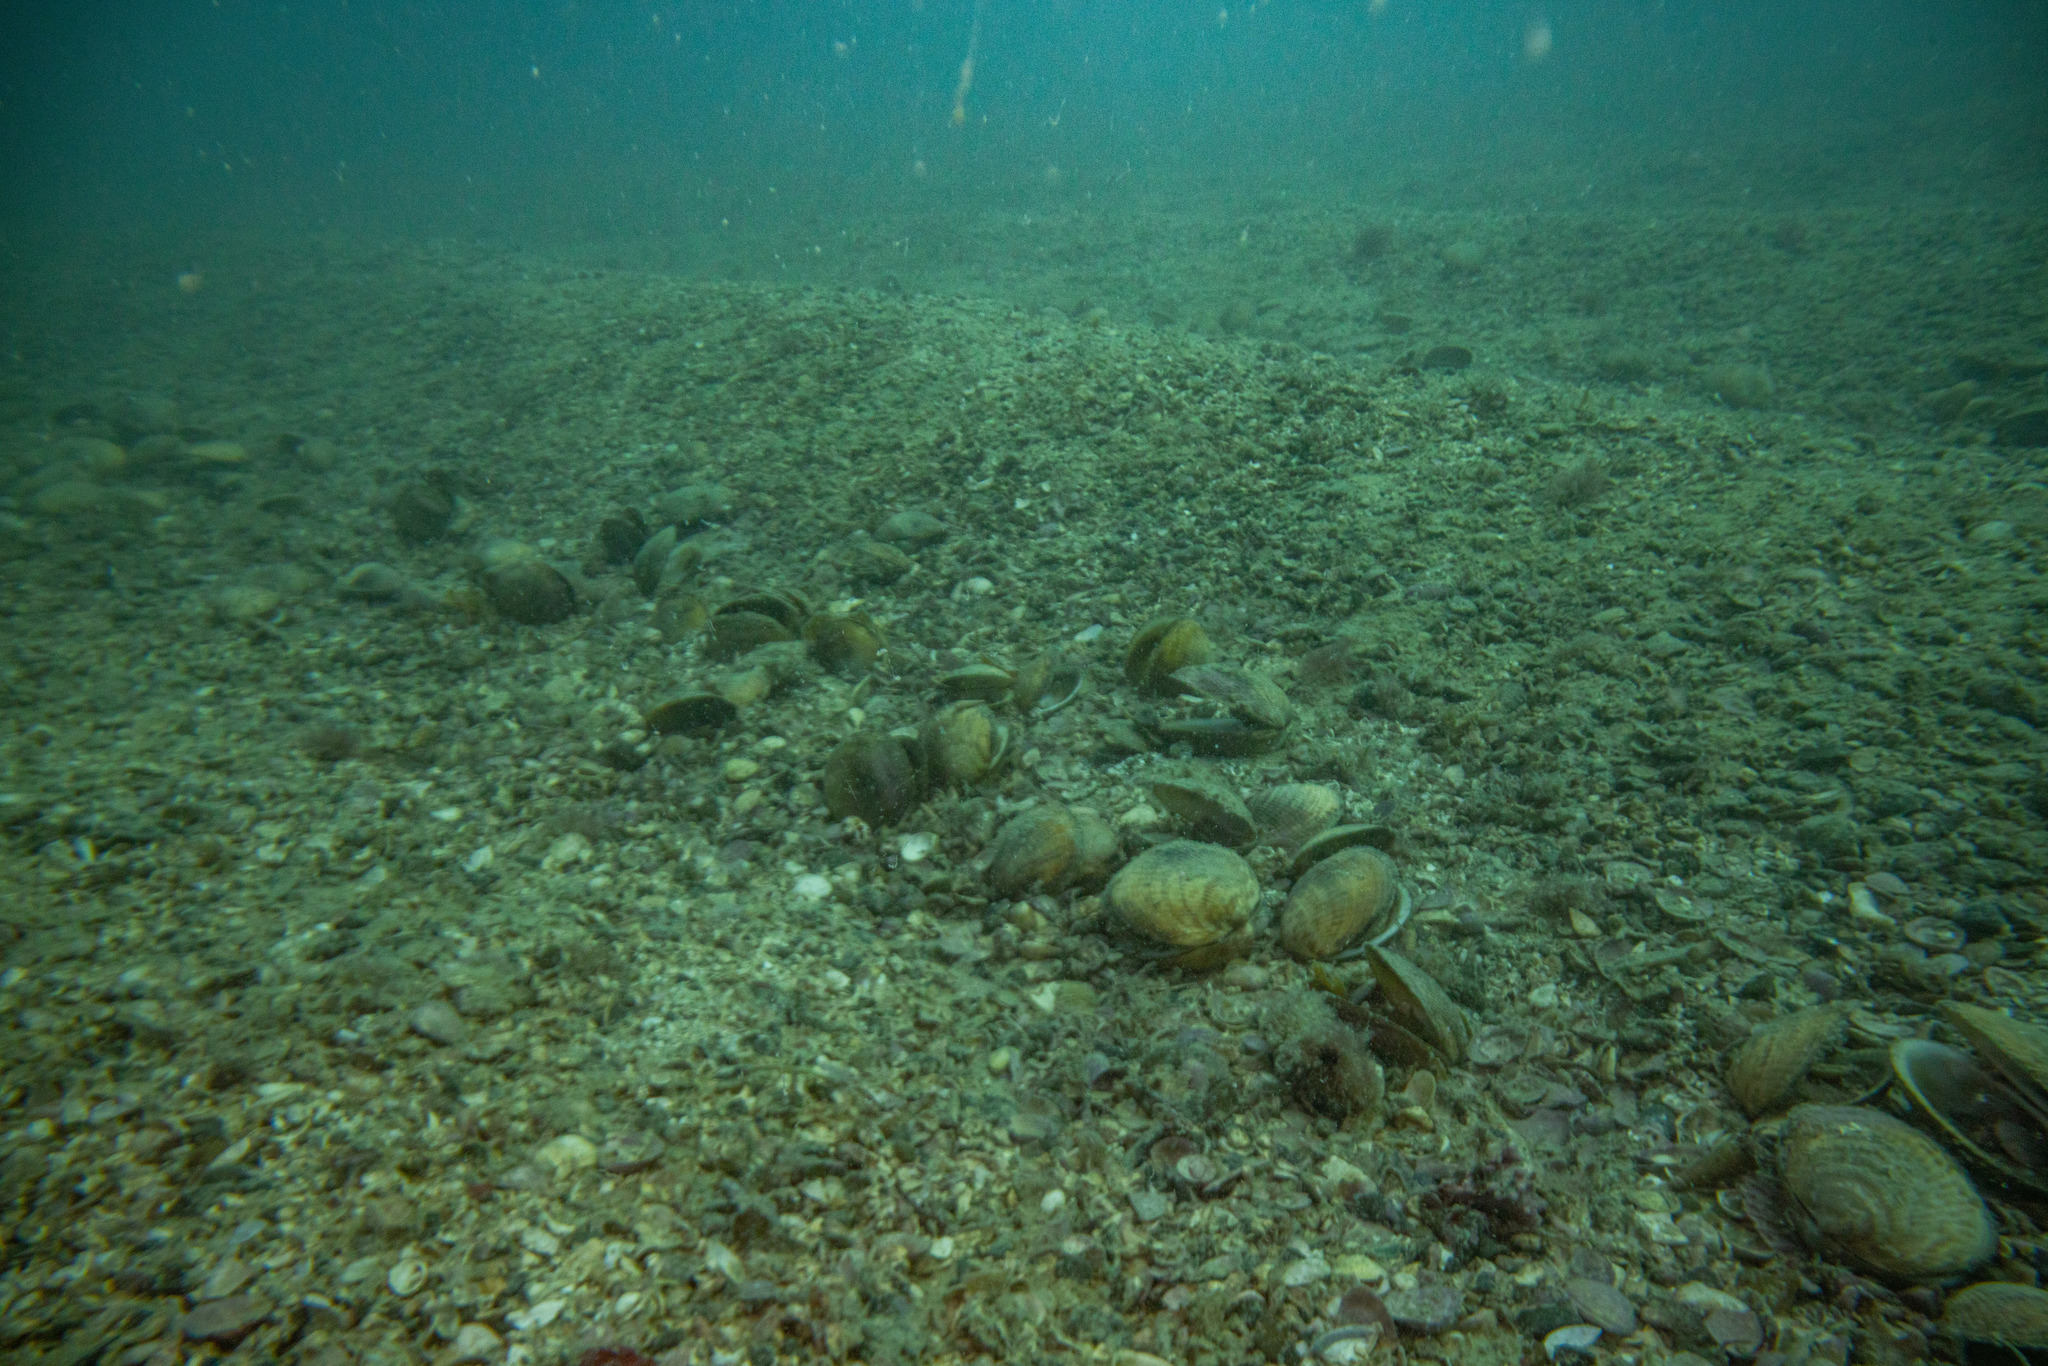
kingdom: Animalia
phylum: Mollusca
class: Bivalvia
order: Arcida
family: Glycymerididae
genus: Tucetona
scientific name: Tucetona laticostata
